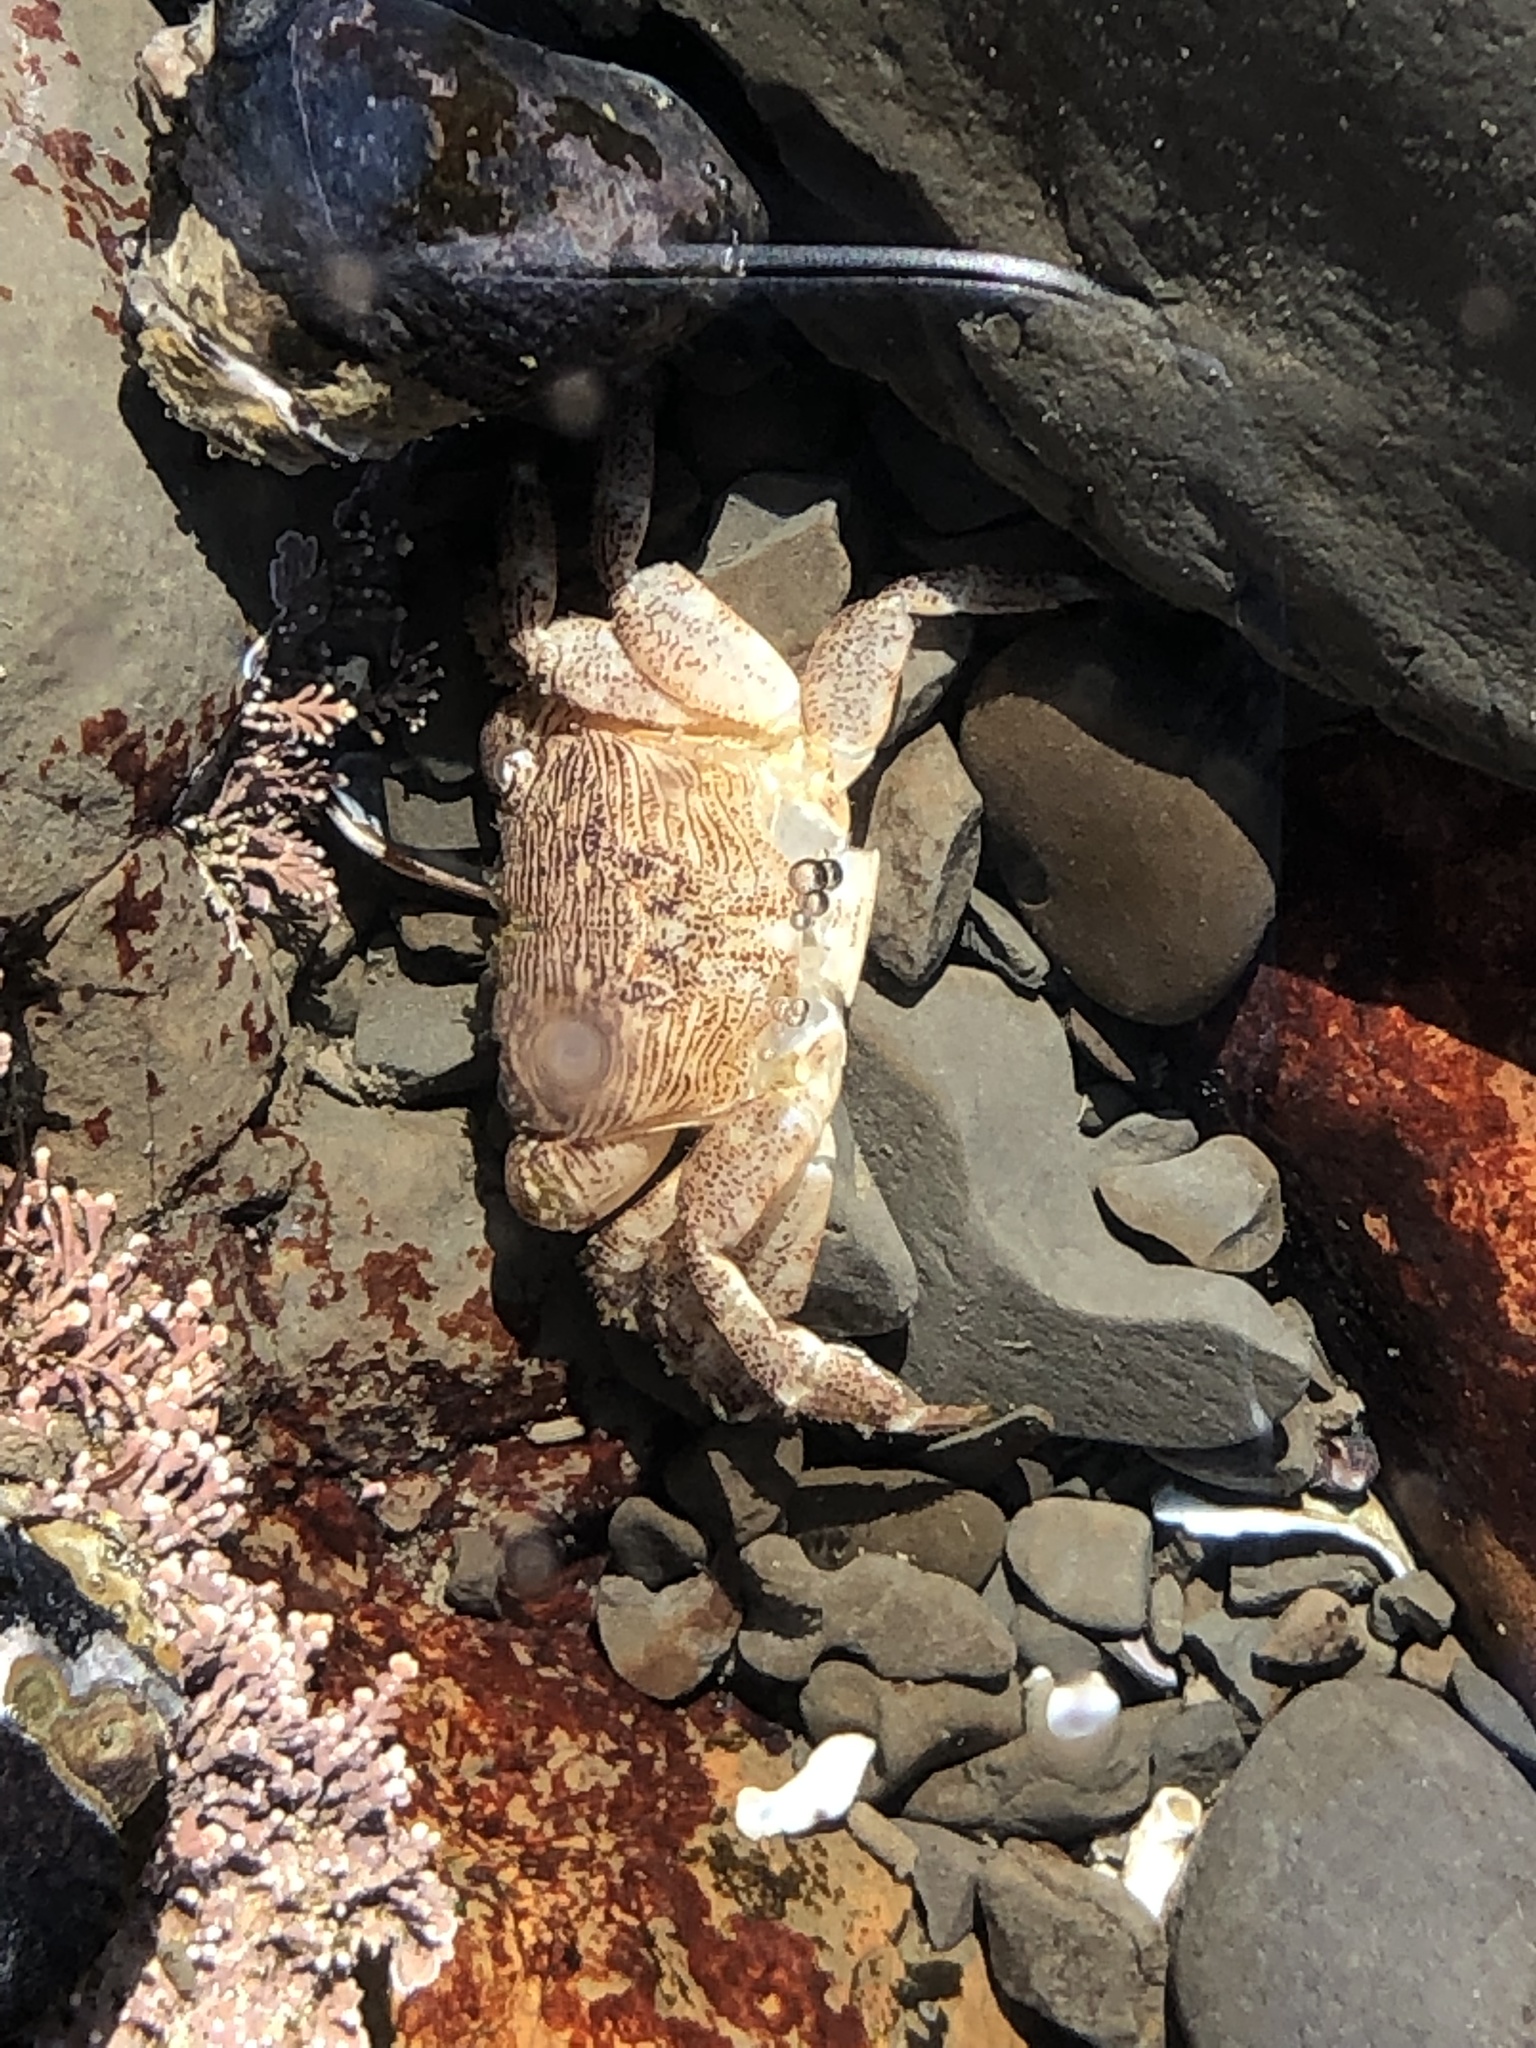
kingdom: Animalia
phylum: Arthropoda
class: Malacostraca
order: Decapoda
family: Grapsidae
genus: Pachygrapsus
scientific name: Pachygrapsus crassipes
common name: Striped shore crab
